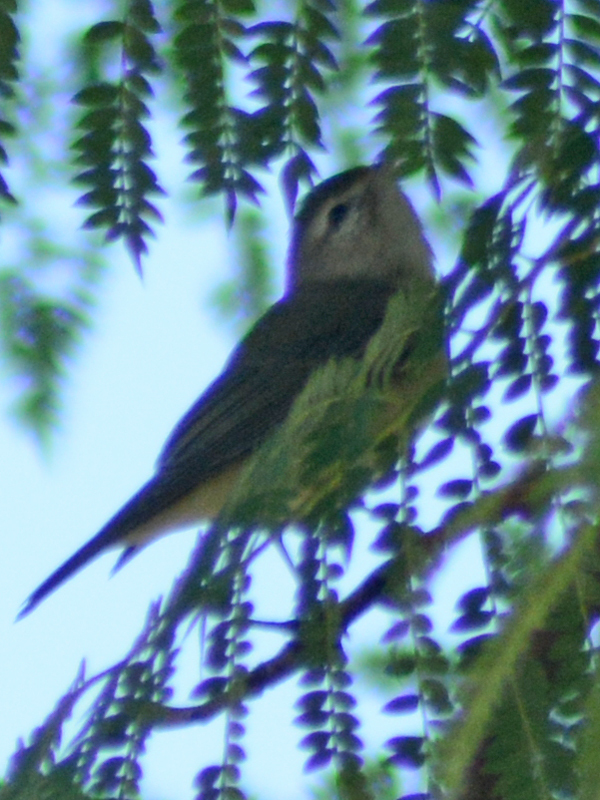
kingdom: Animalia
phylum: Chordata
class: Aves
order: Passeriformes
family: Vireonidae
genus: Vireo
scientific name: Vireo gilvus
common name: Warbling vireo
